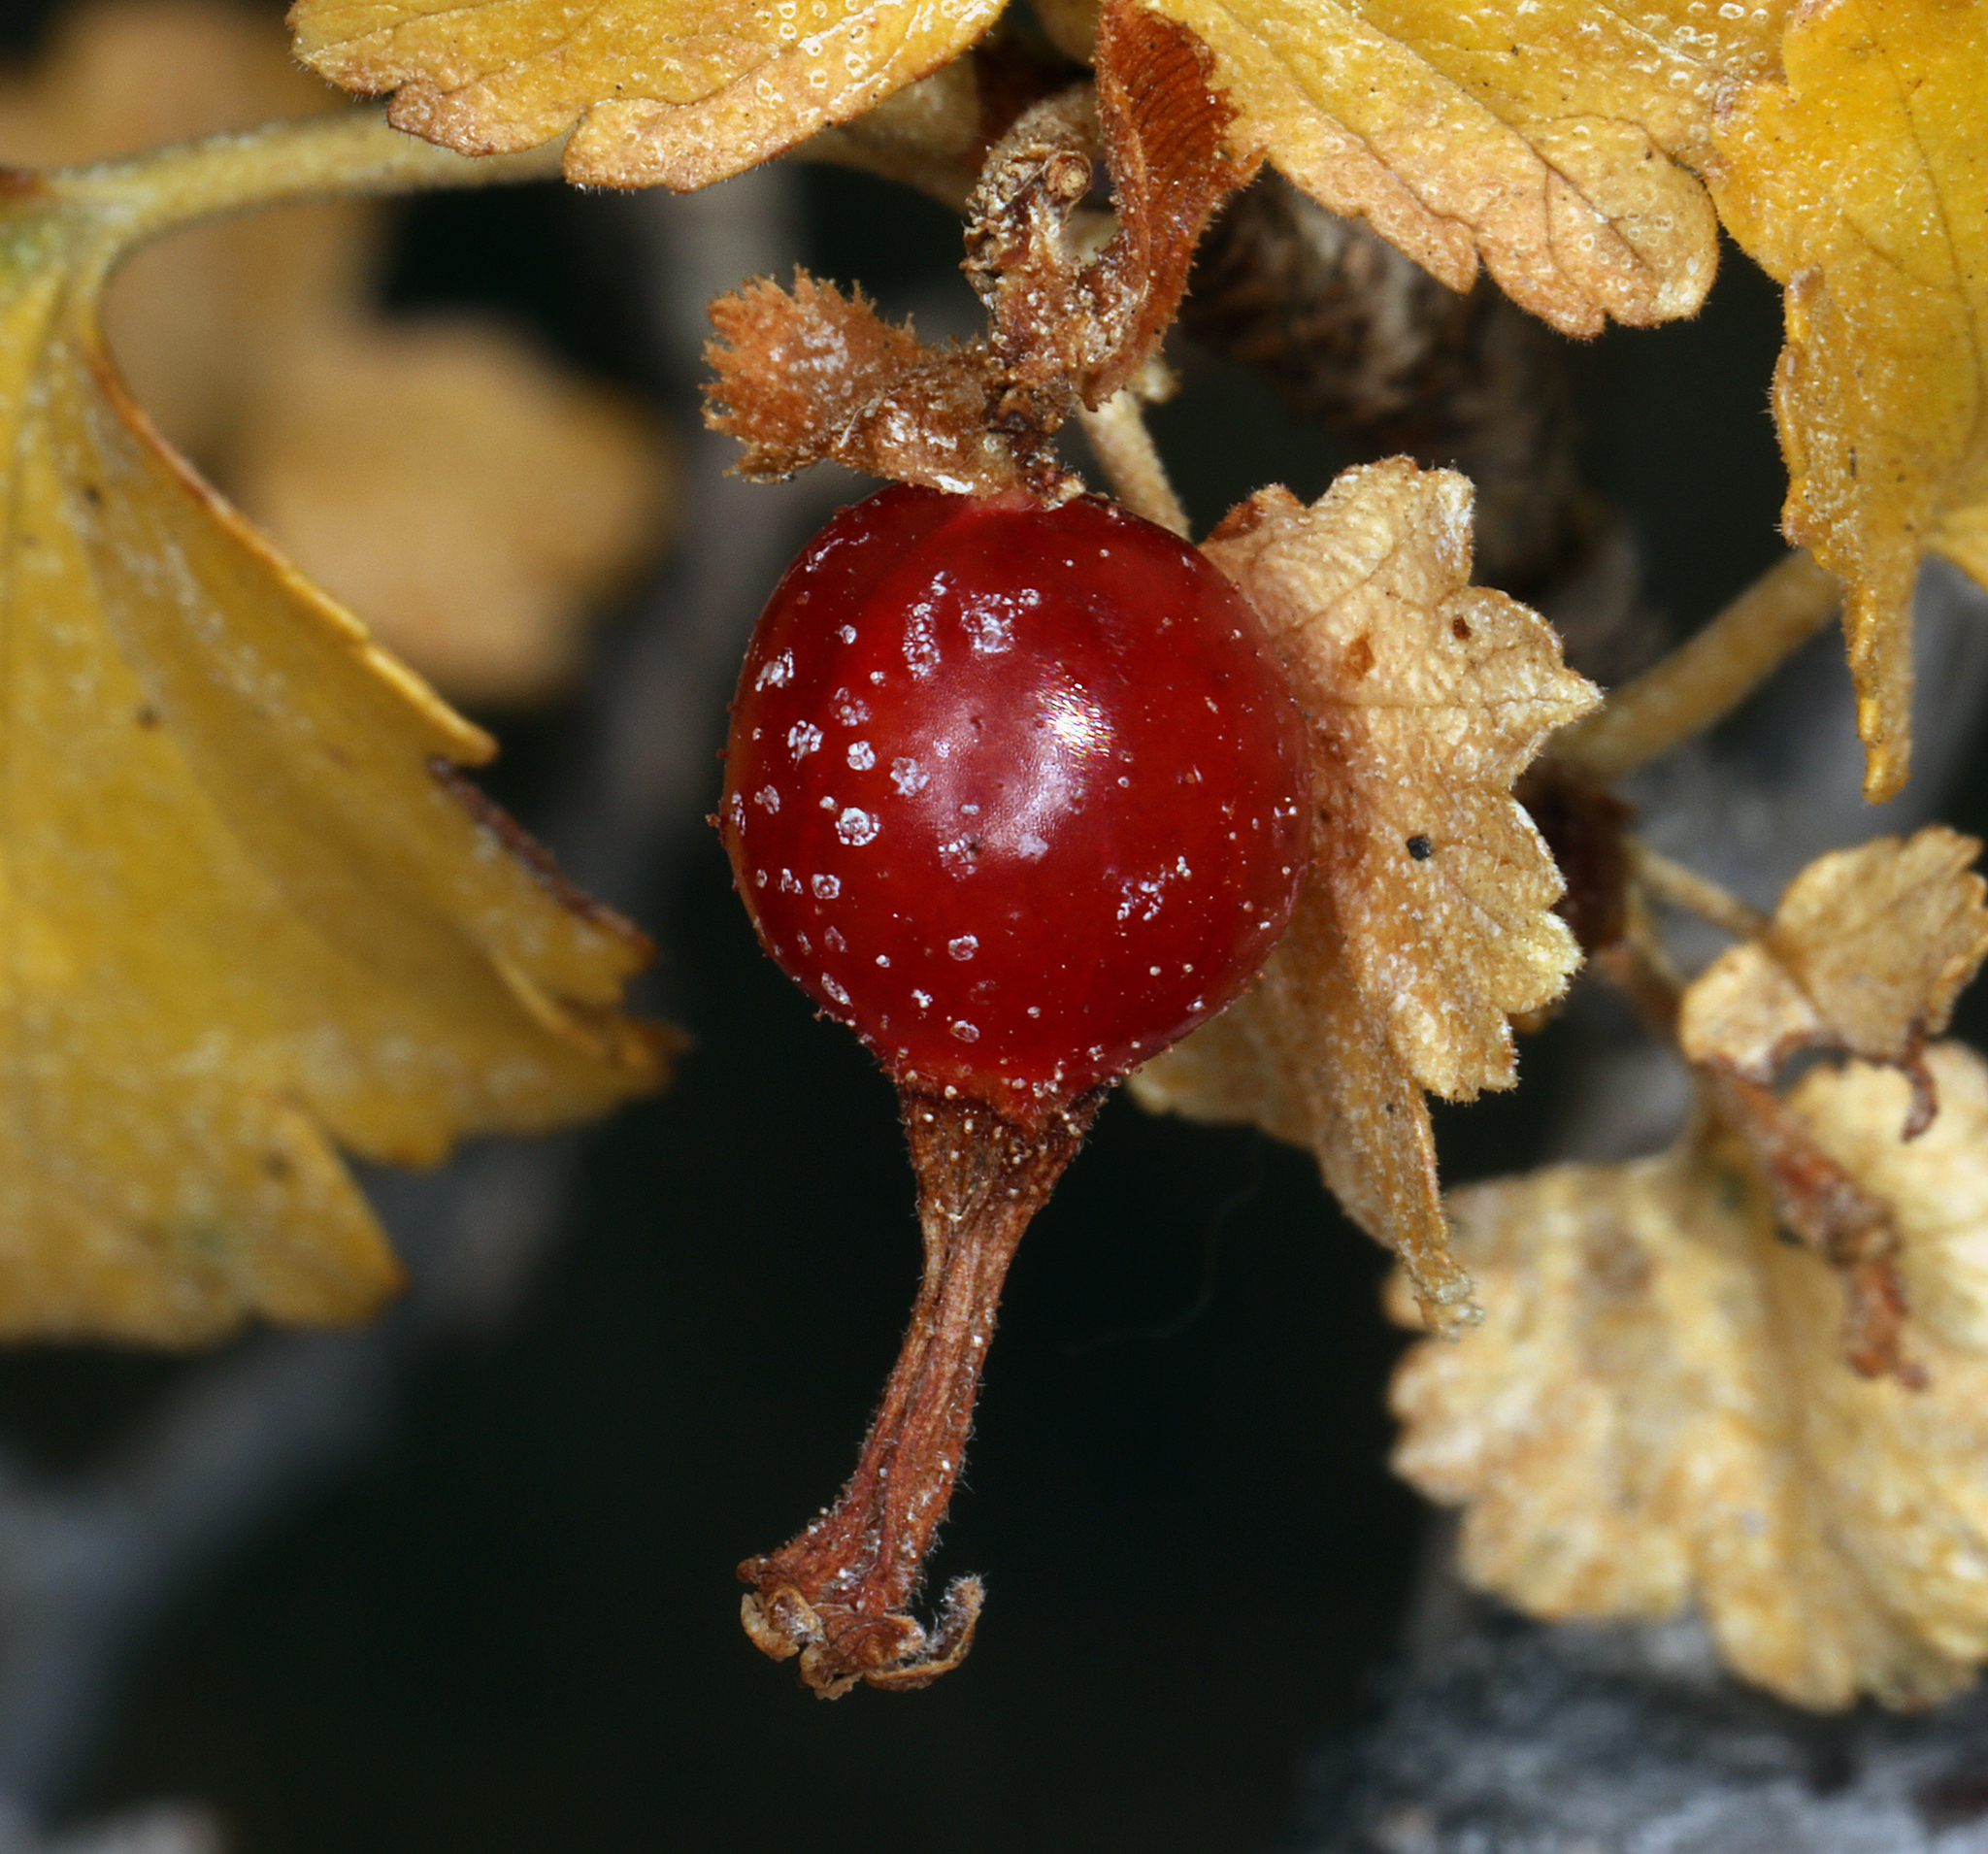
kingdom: Plantae
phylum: Tracheophyta
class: Magnoliopsida
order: Saxifragales
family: Grossulariaceae
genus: Ribes
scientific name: Ribes cereum
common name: Wax currant
